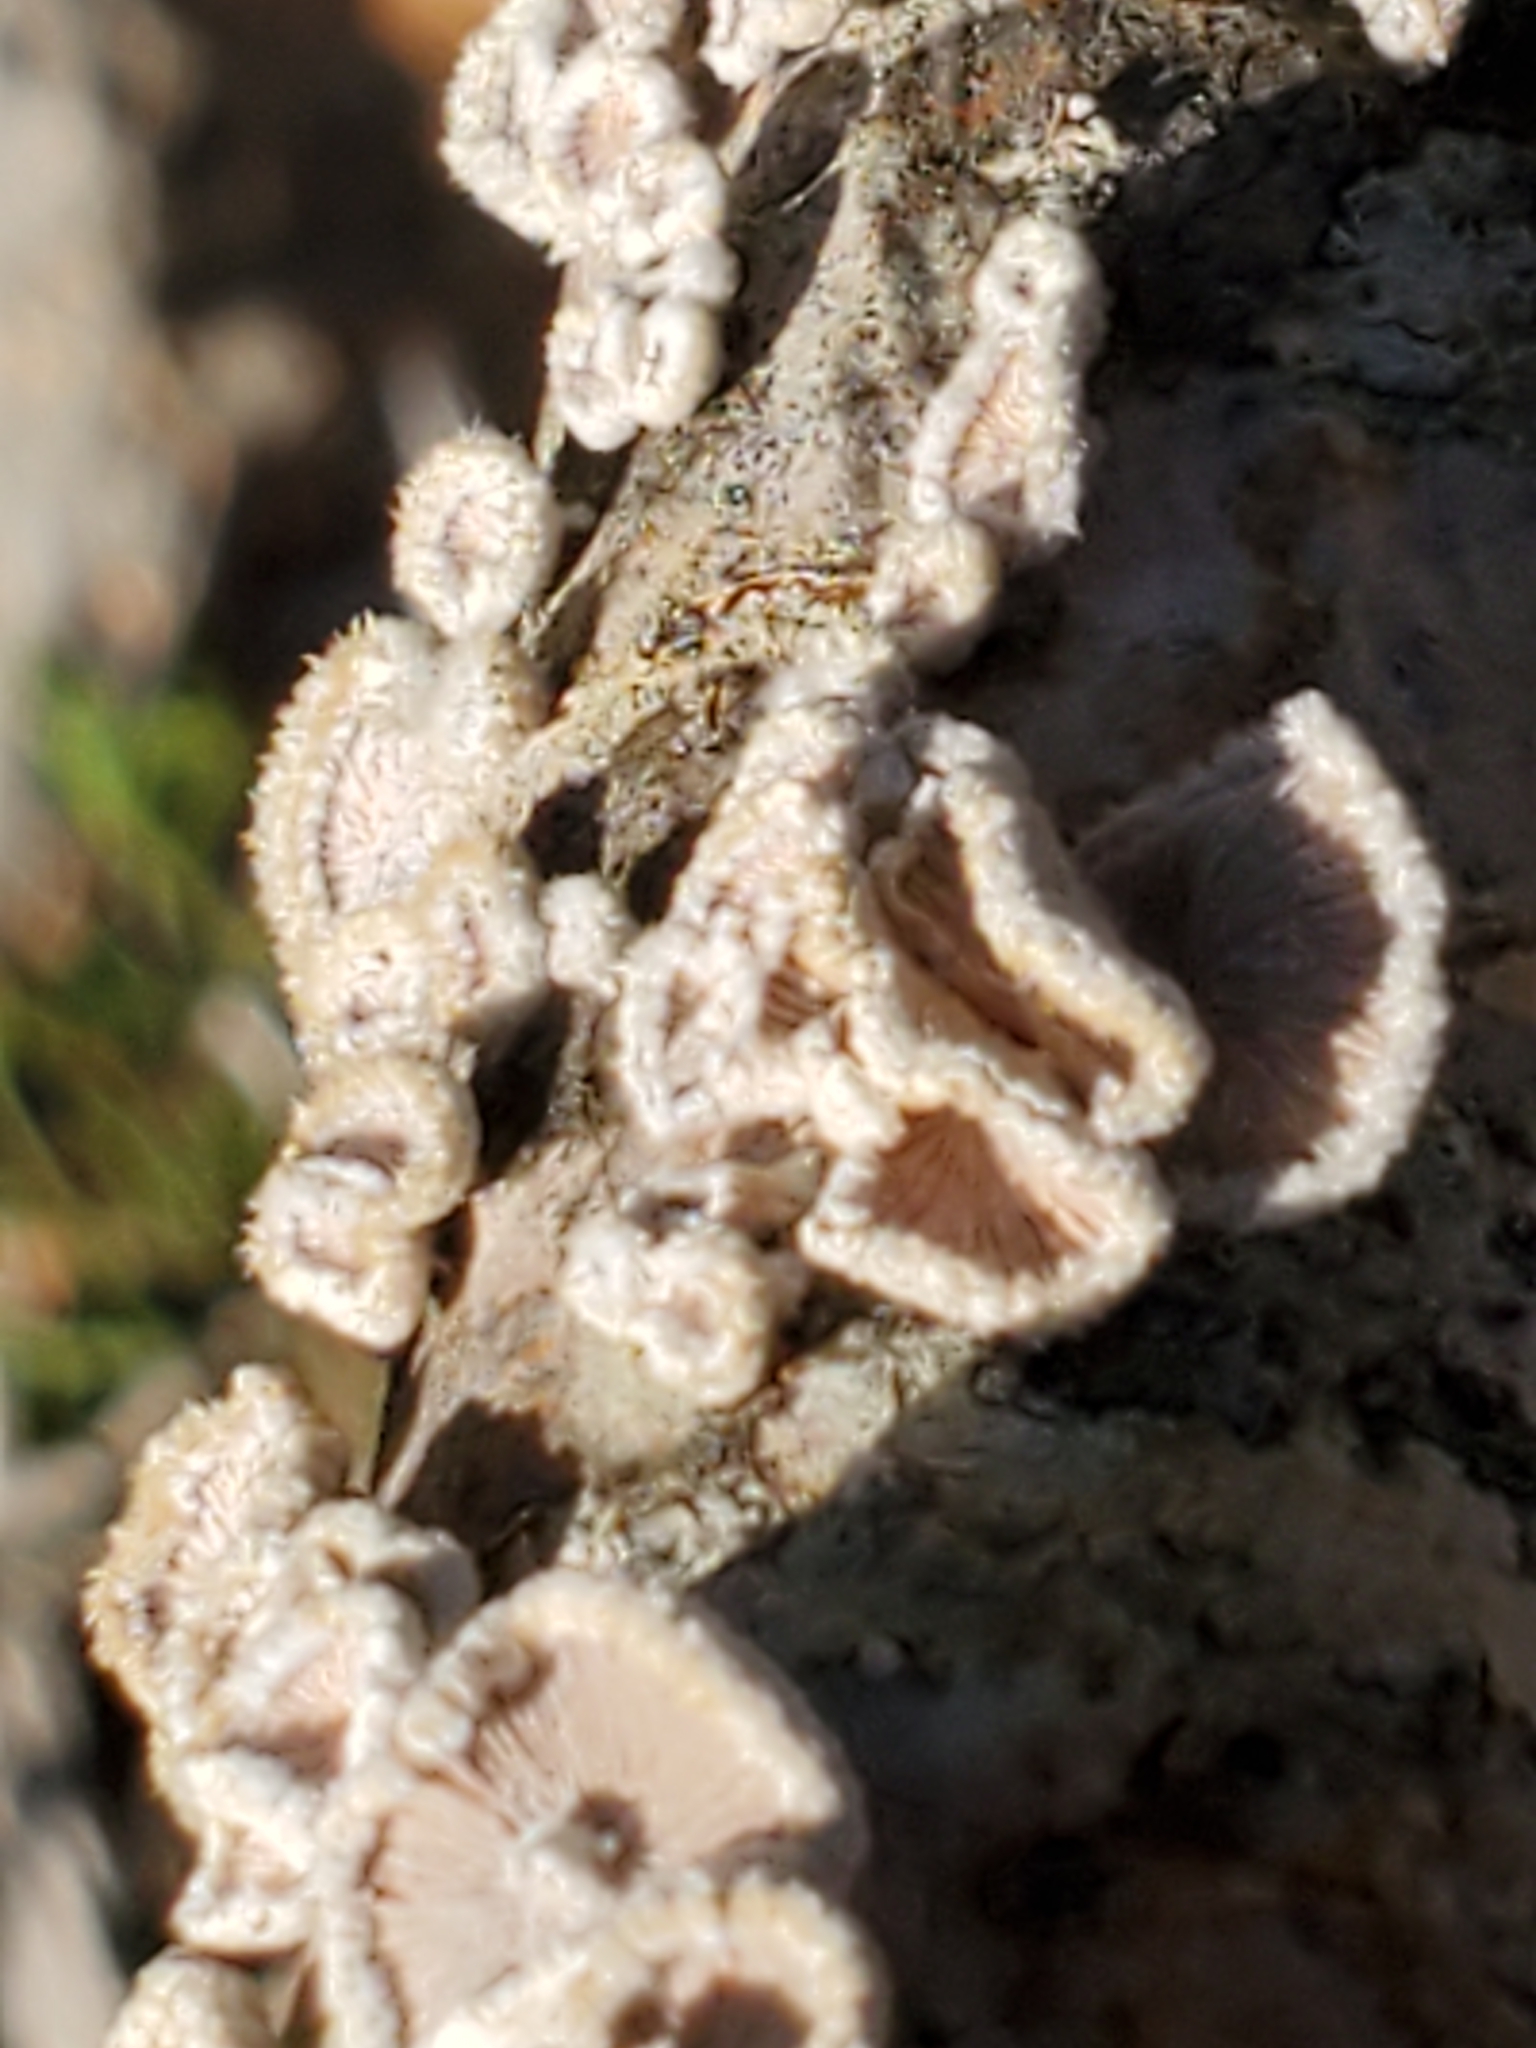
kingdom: Fungi
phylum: Basidiomycota
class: Agaricomycetes
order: Agaricales
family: Schizophyllaceae
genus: Schizophyllum
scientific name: Schizophyllum commune
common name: Common porecrust
